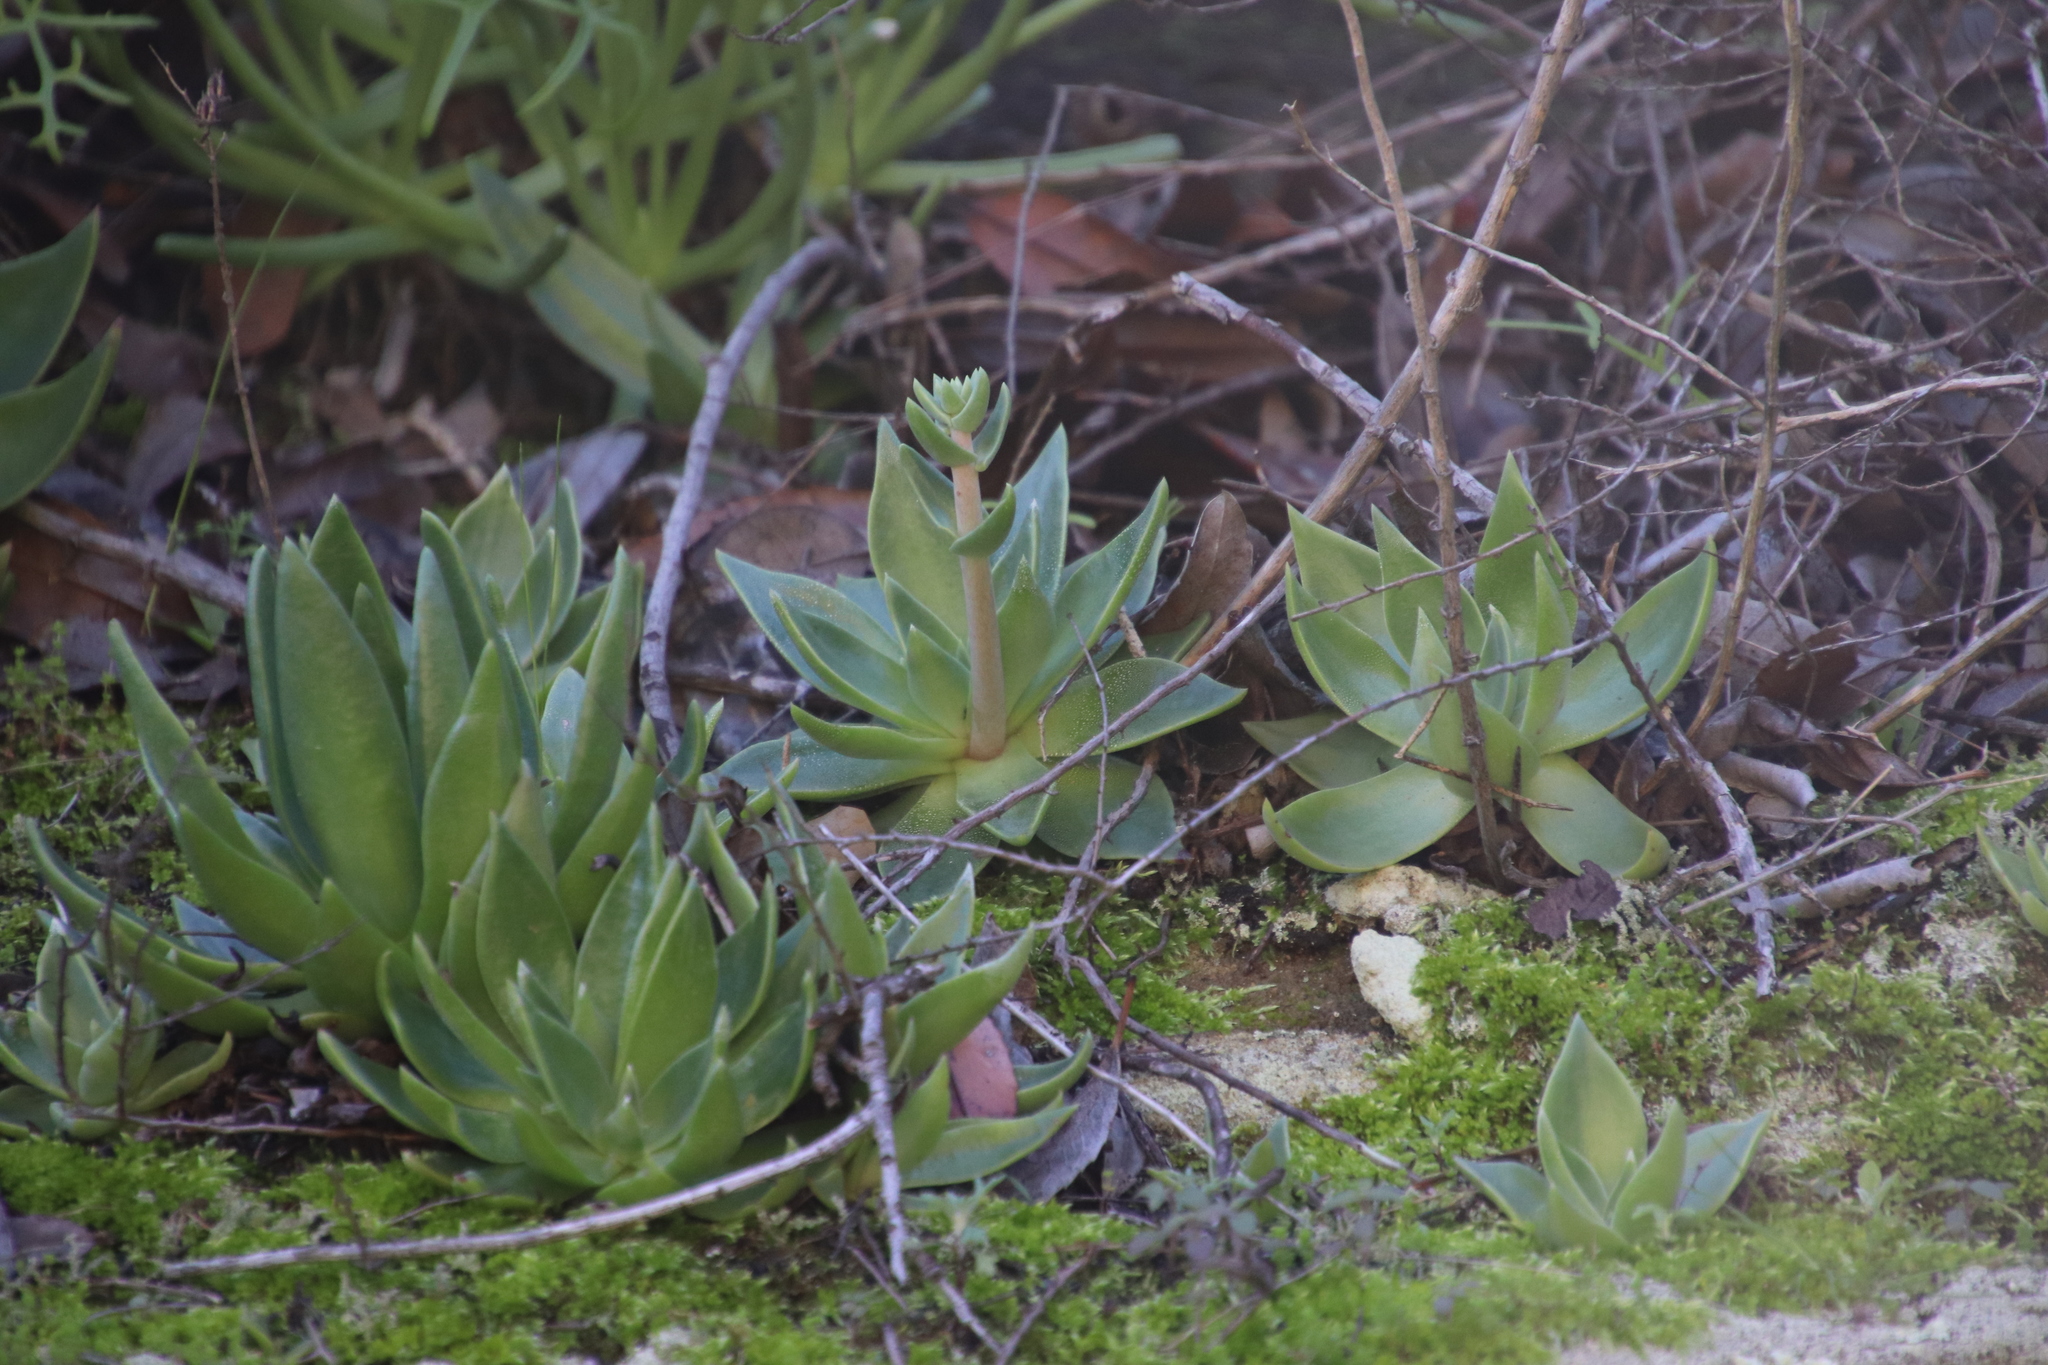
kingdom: Plantae
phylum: Tracheophyta
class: Magnoliopsida
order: Saxifragales
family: Crassulaceae
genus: Dudleya
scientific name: Dudleya lanceolata
